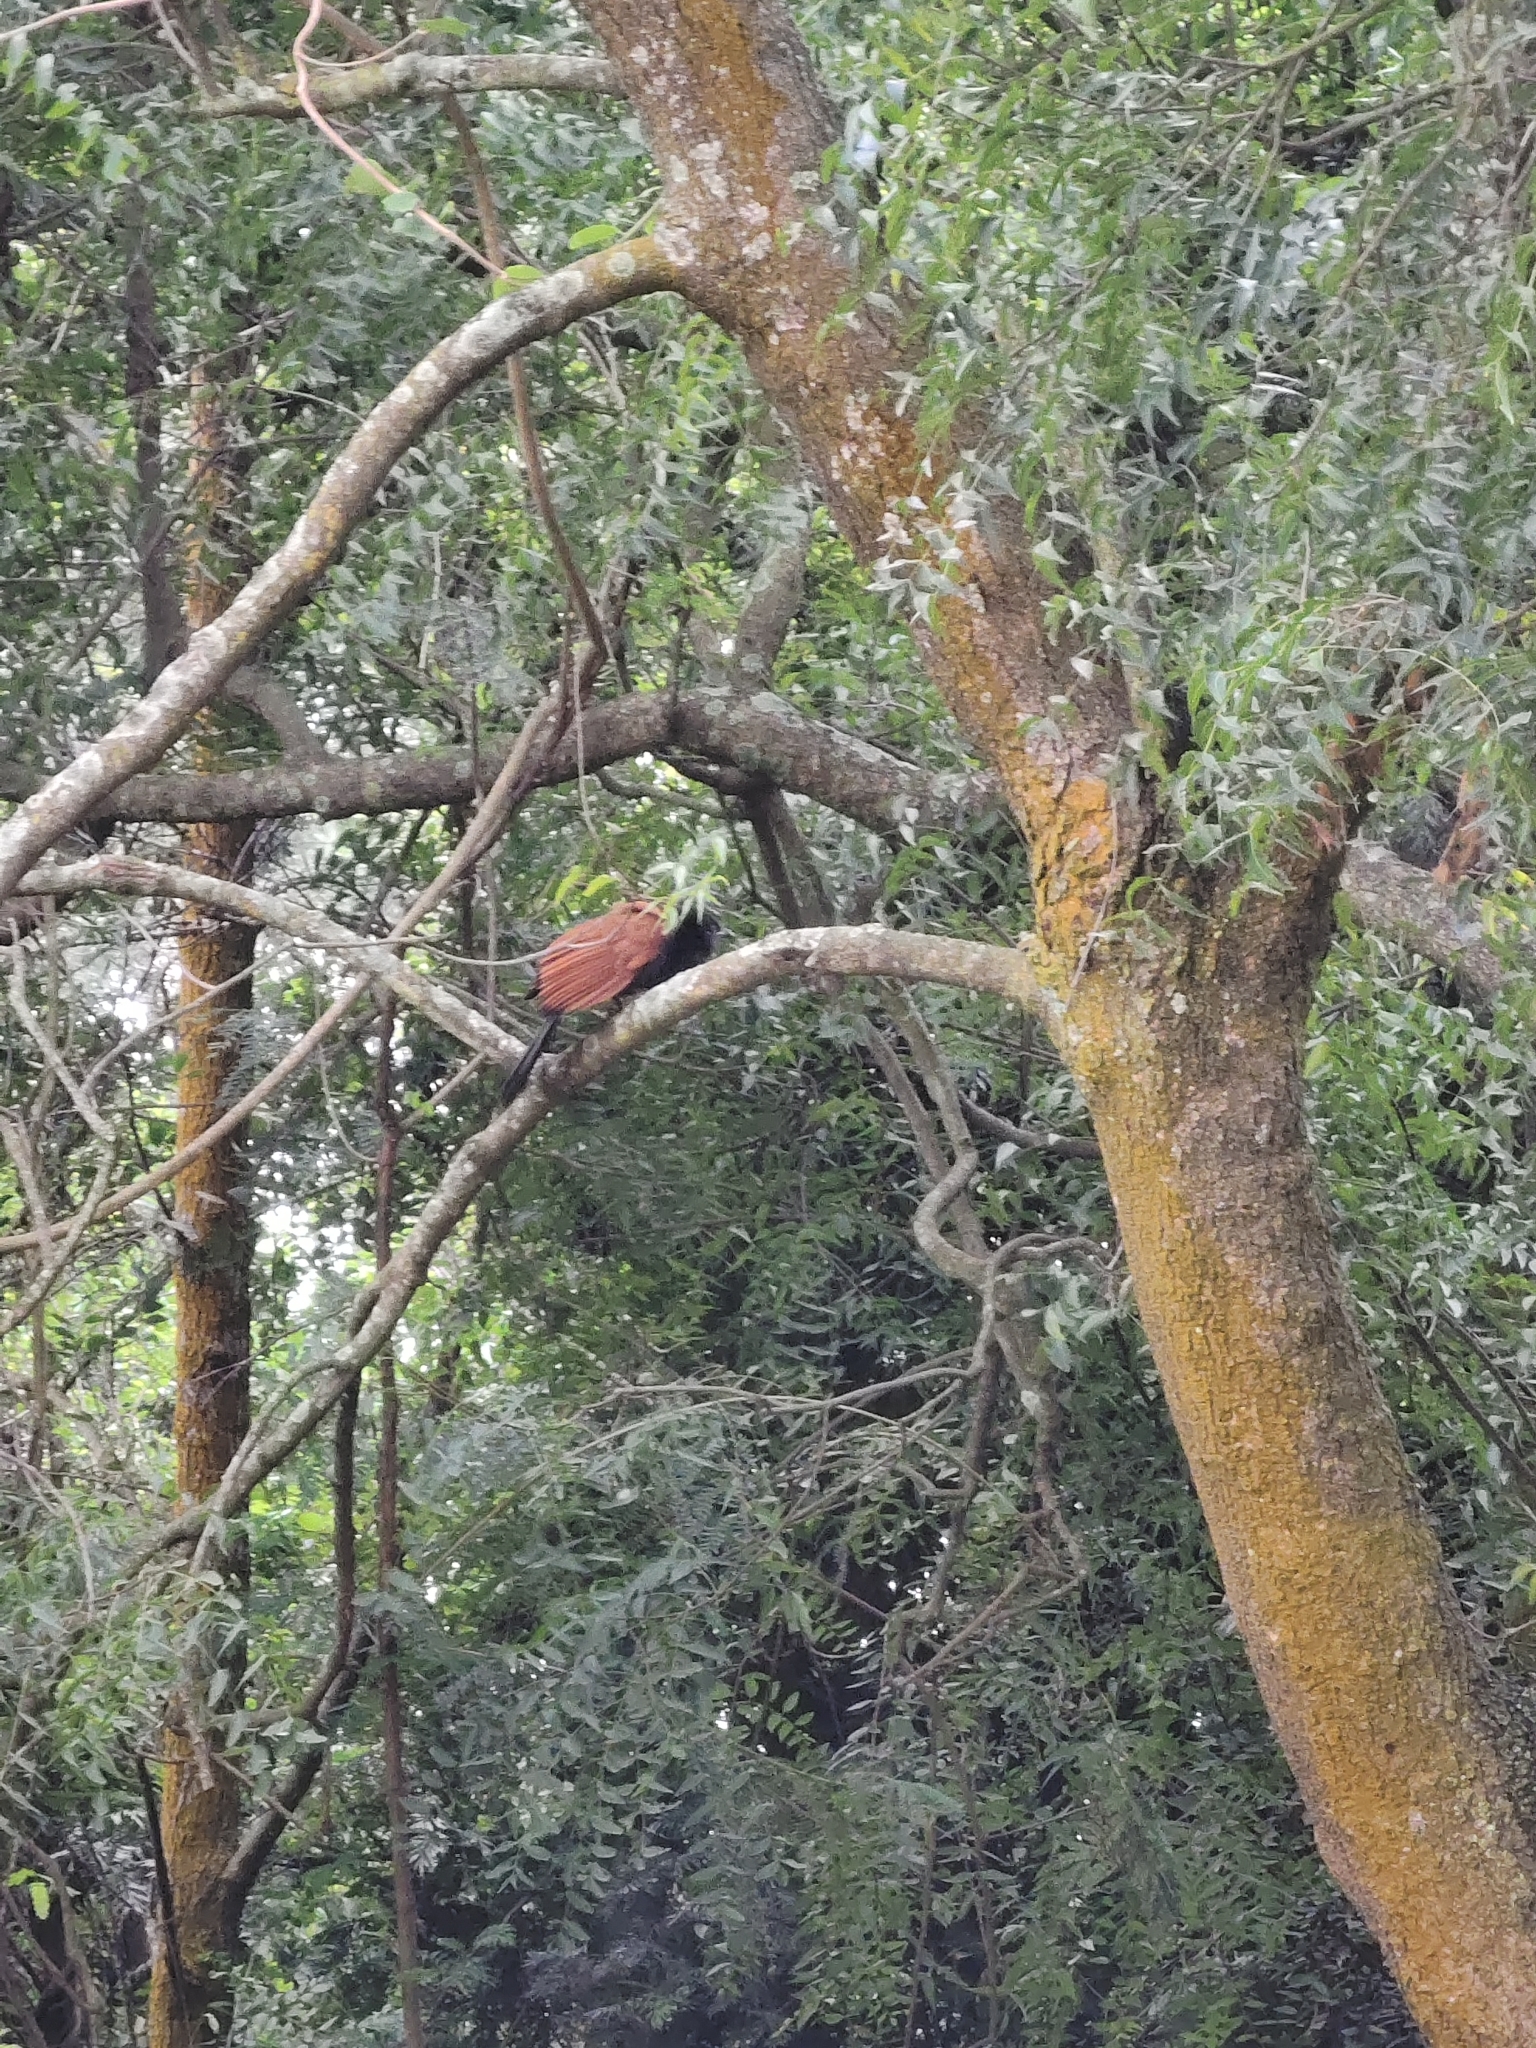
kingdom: Animalia
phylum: Chordata
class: Aves
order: Cuculiformes
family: Cuculidae
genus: Centropus
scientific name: Centropus sinensis
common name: Greater coucal
